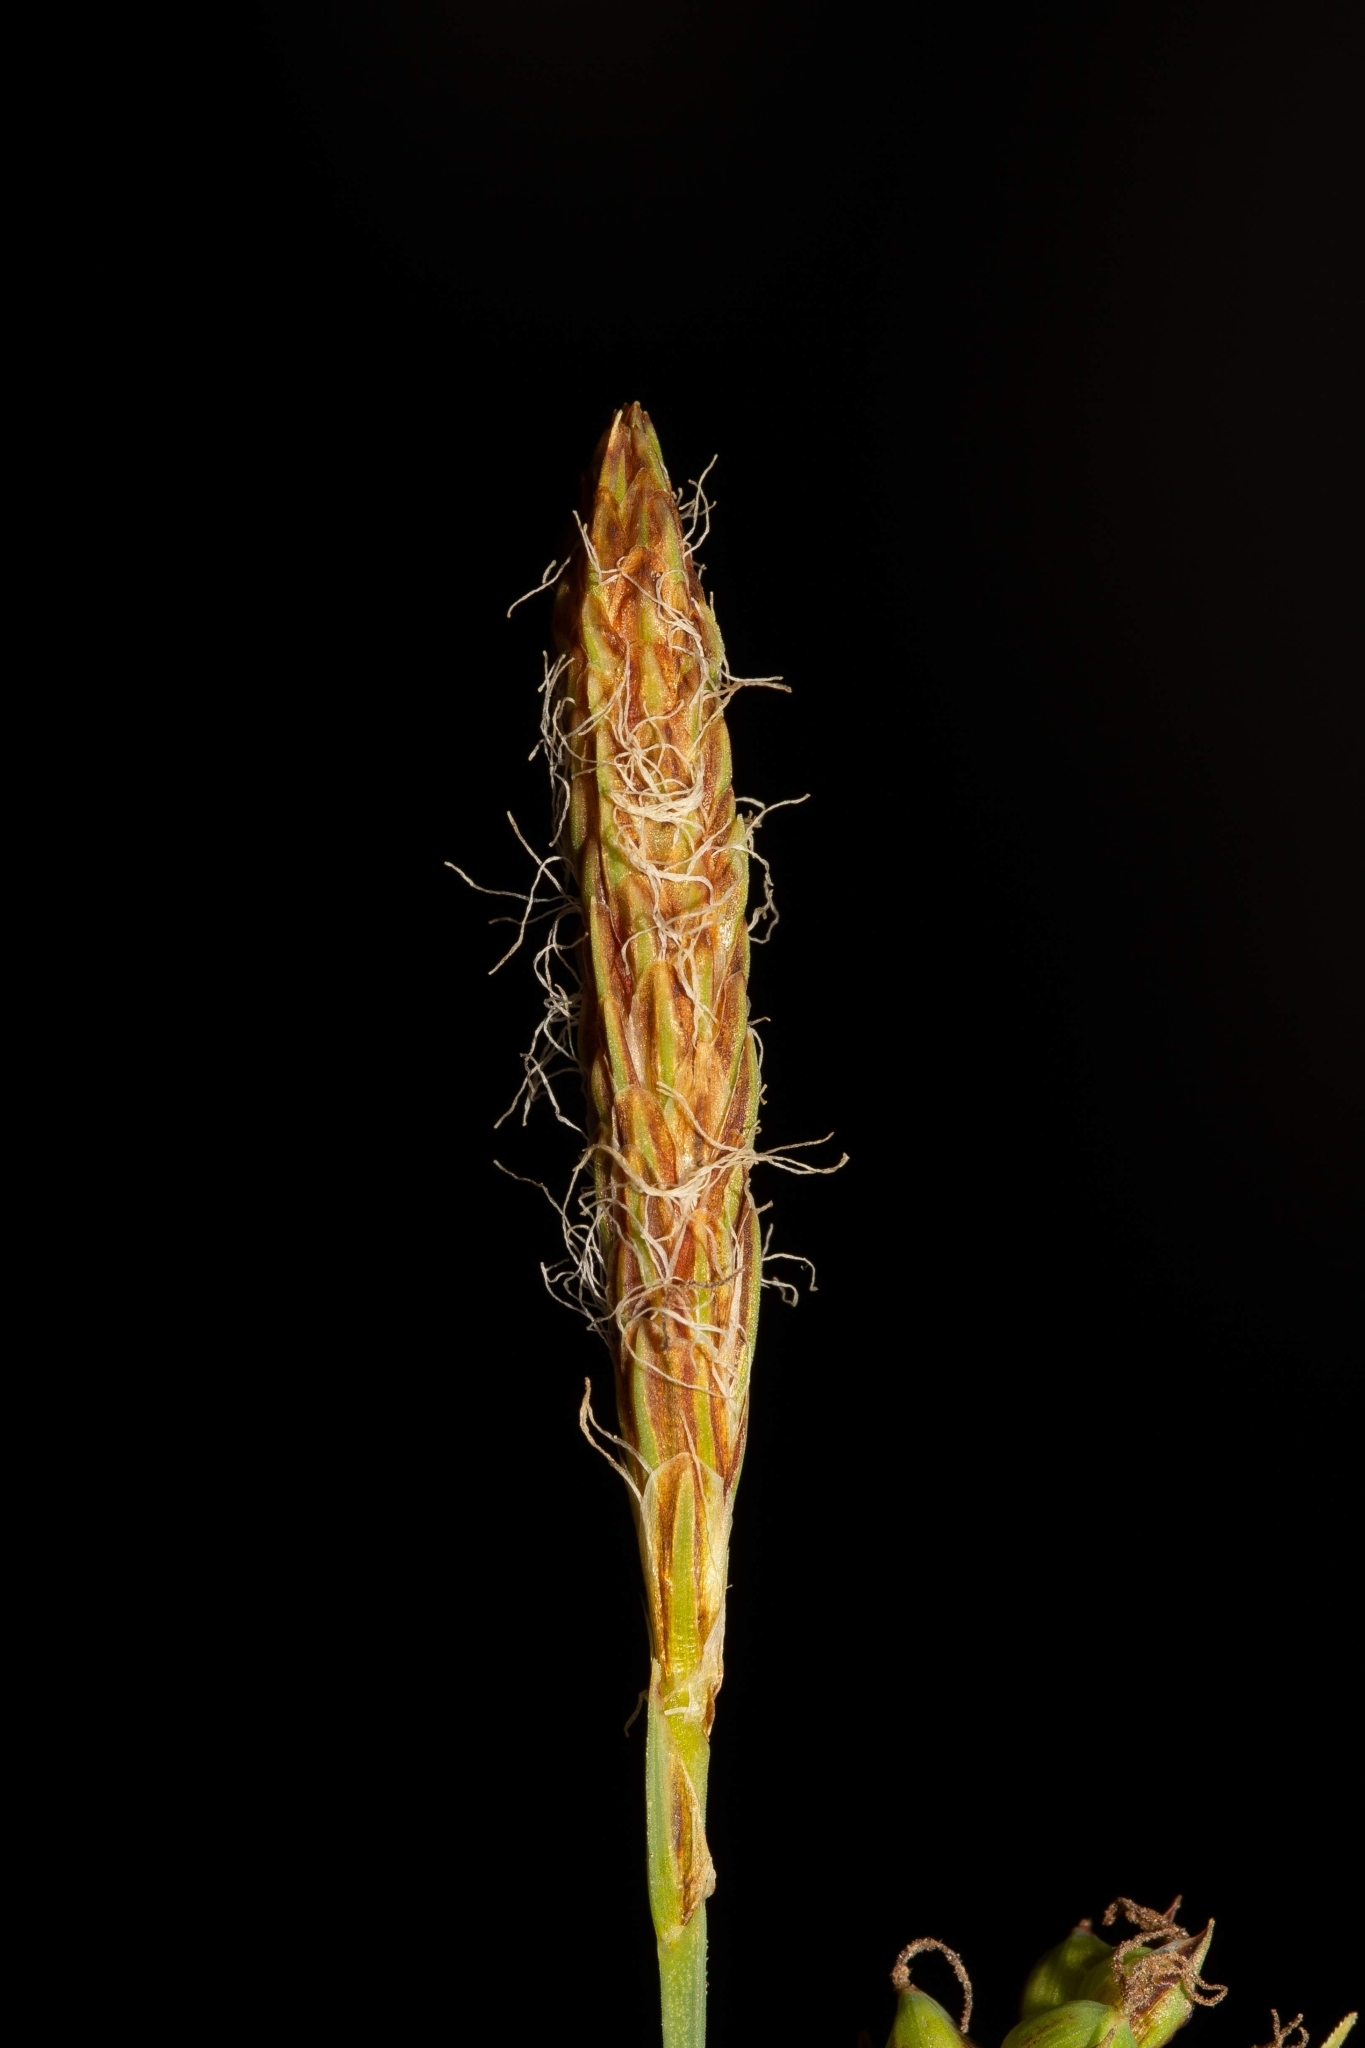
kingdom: Plantae
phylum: Tracheophyta
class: Liliopsida
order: Poales
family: Cyperaceae
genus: Carex
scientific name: Carex meadii
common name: Mead's sedge
